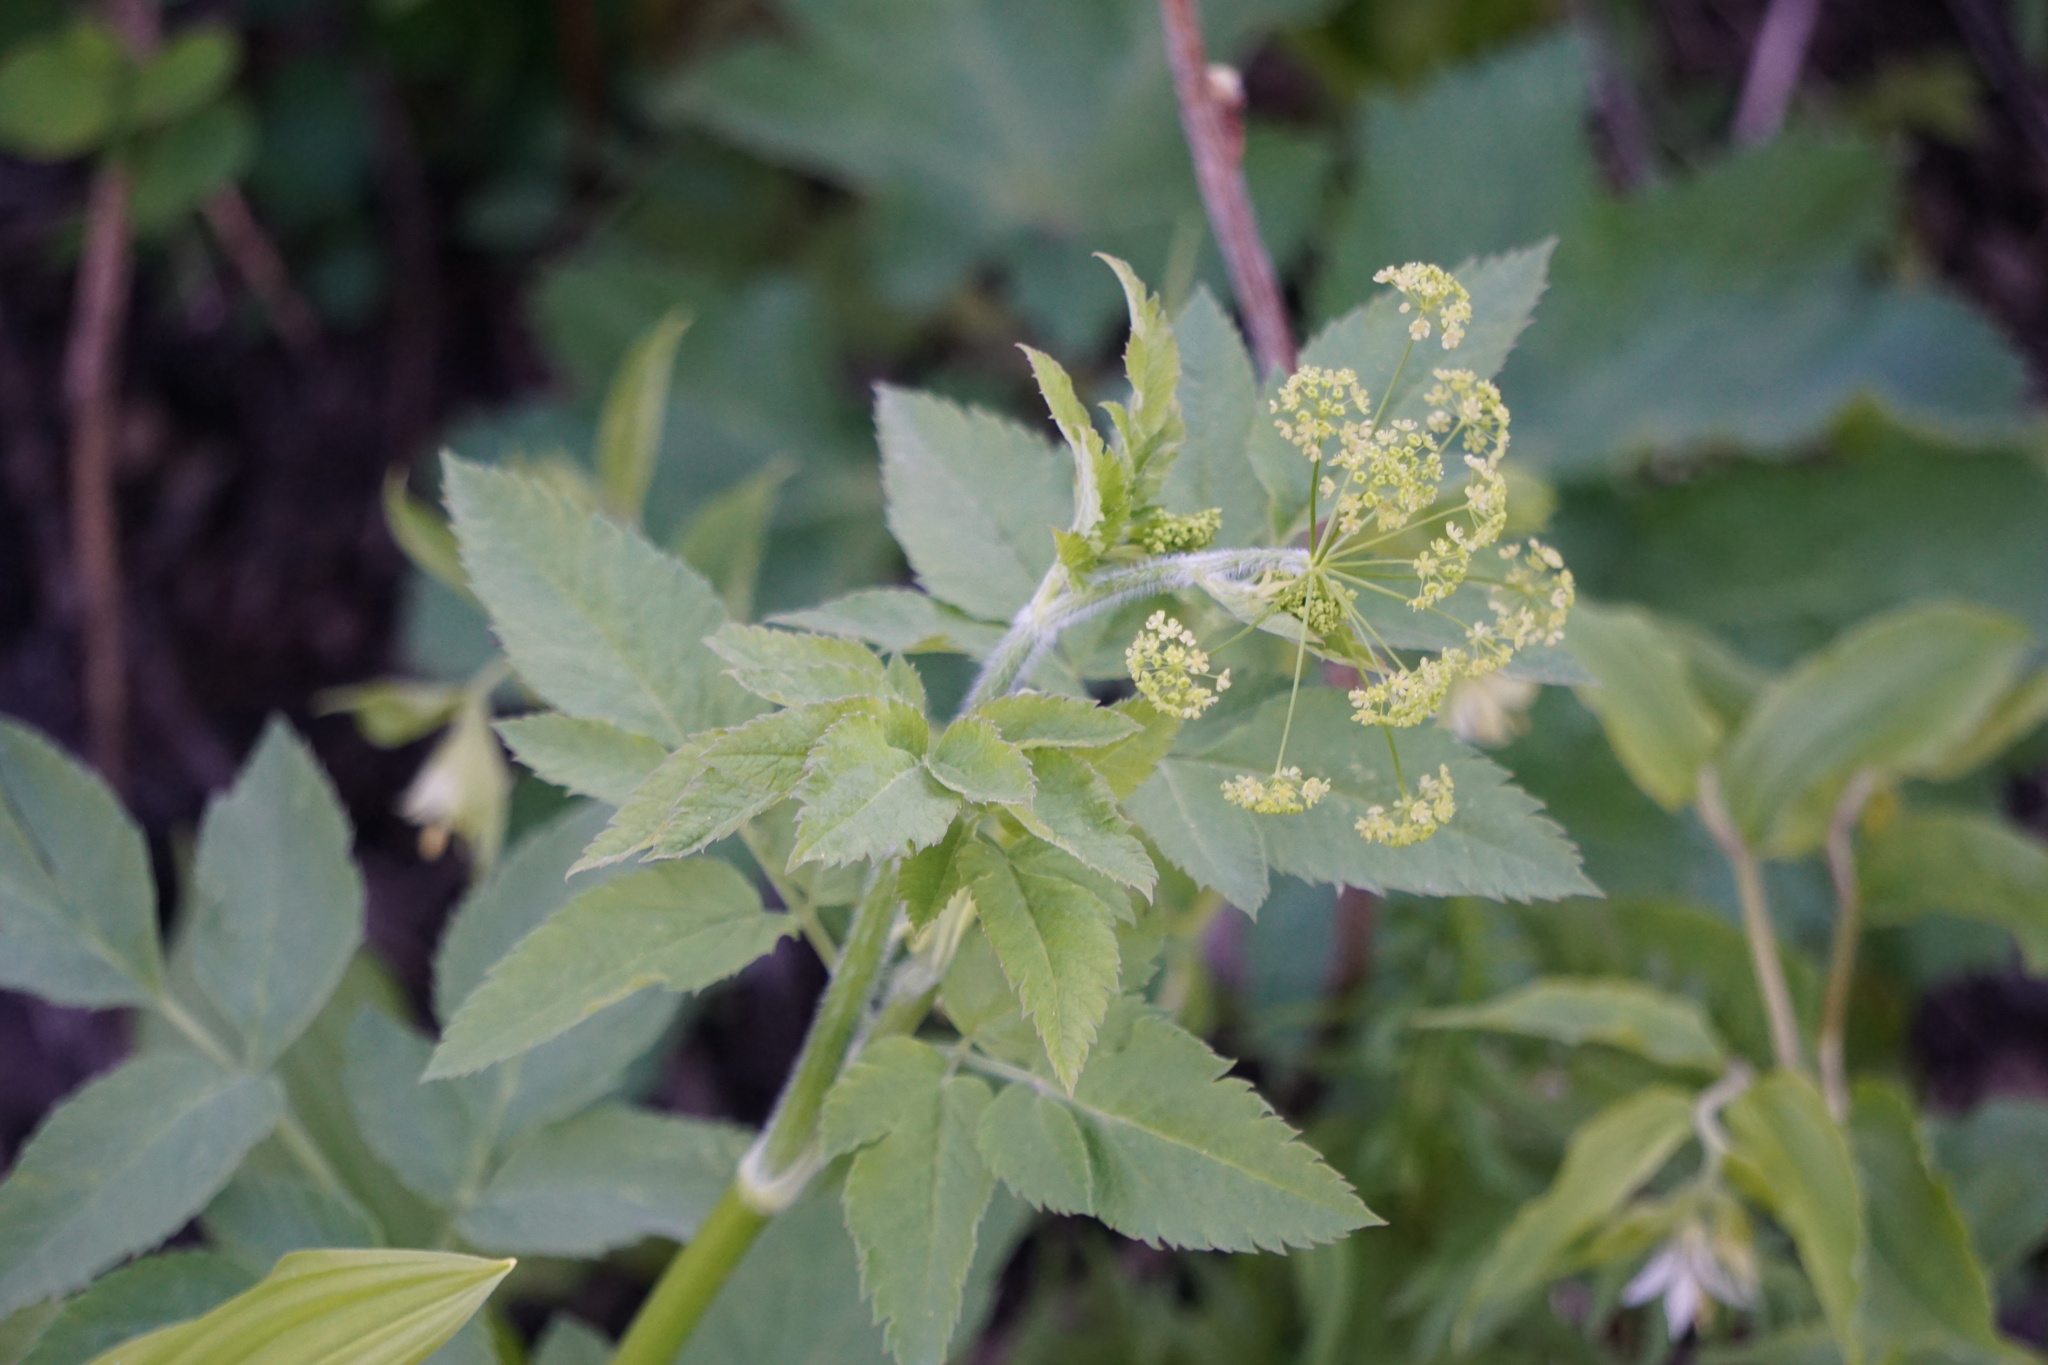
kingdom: Plantae
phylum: Tracheophyta
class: Magnoliopsida
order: Apiales
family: Apiaceae
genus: Angelica
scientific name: Angelica arguta
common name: Lyall's angelica
